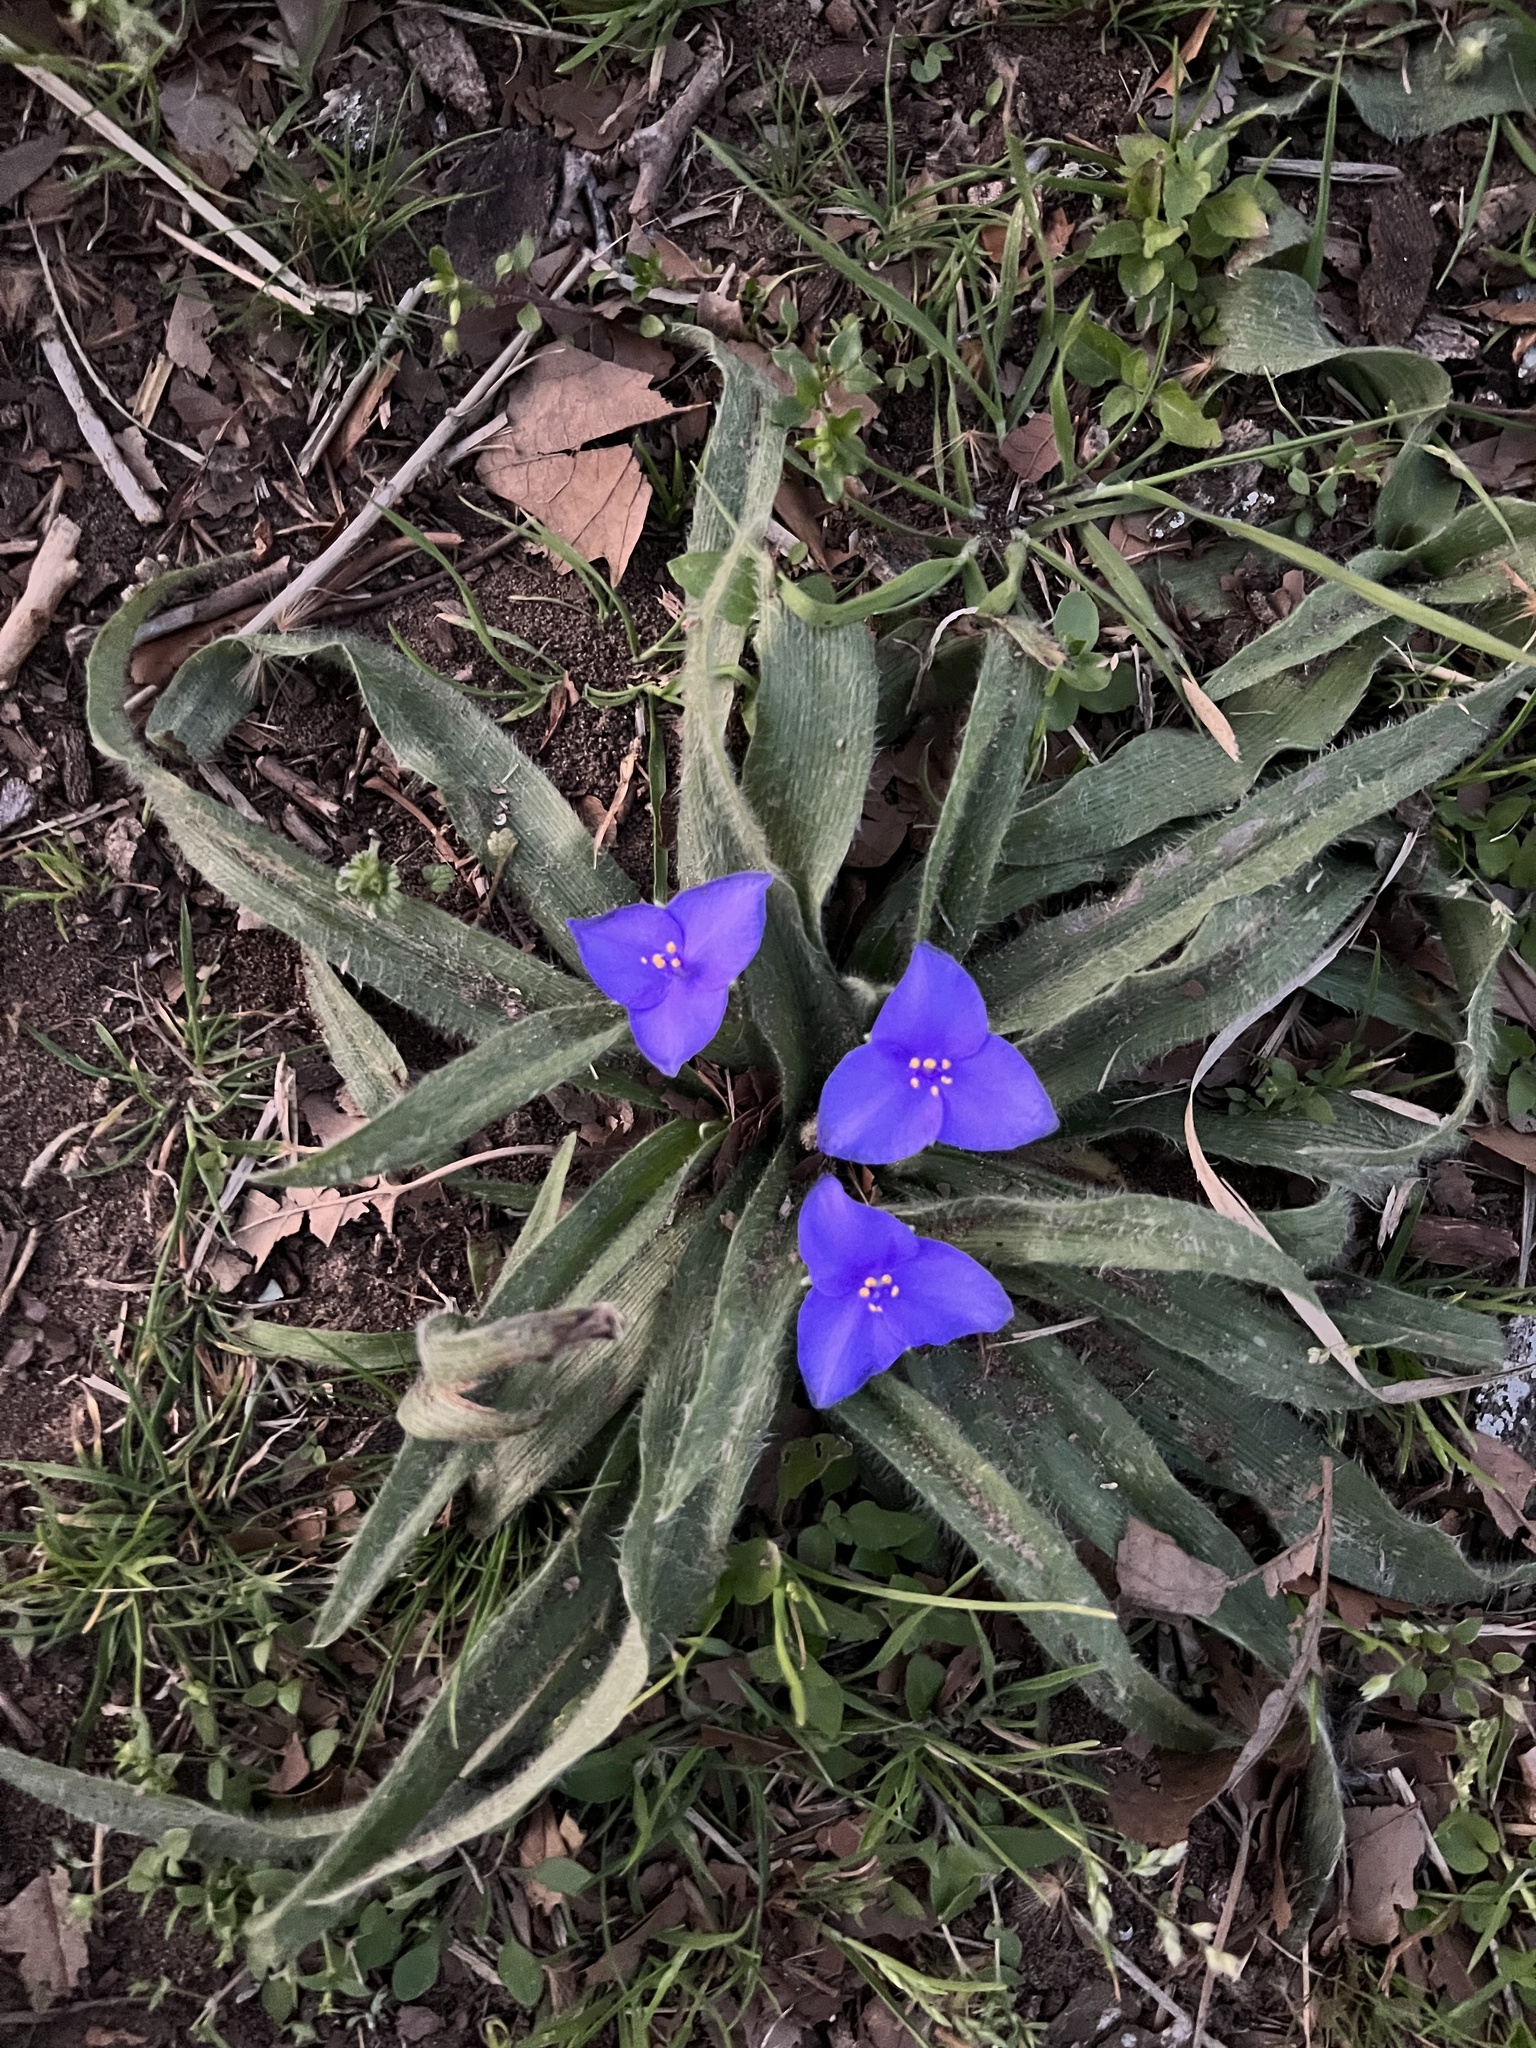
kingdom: Plantae
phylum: Tracheophyta
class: Liliopsida
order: Commelinales
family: Commelinaceae
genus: Tradescantia
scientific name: Tradescantia subacaulis
